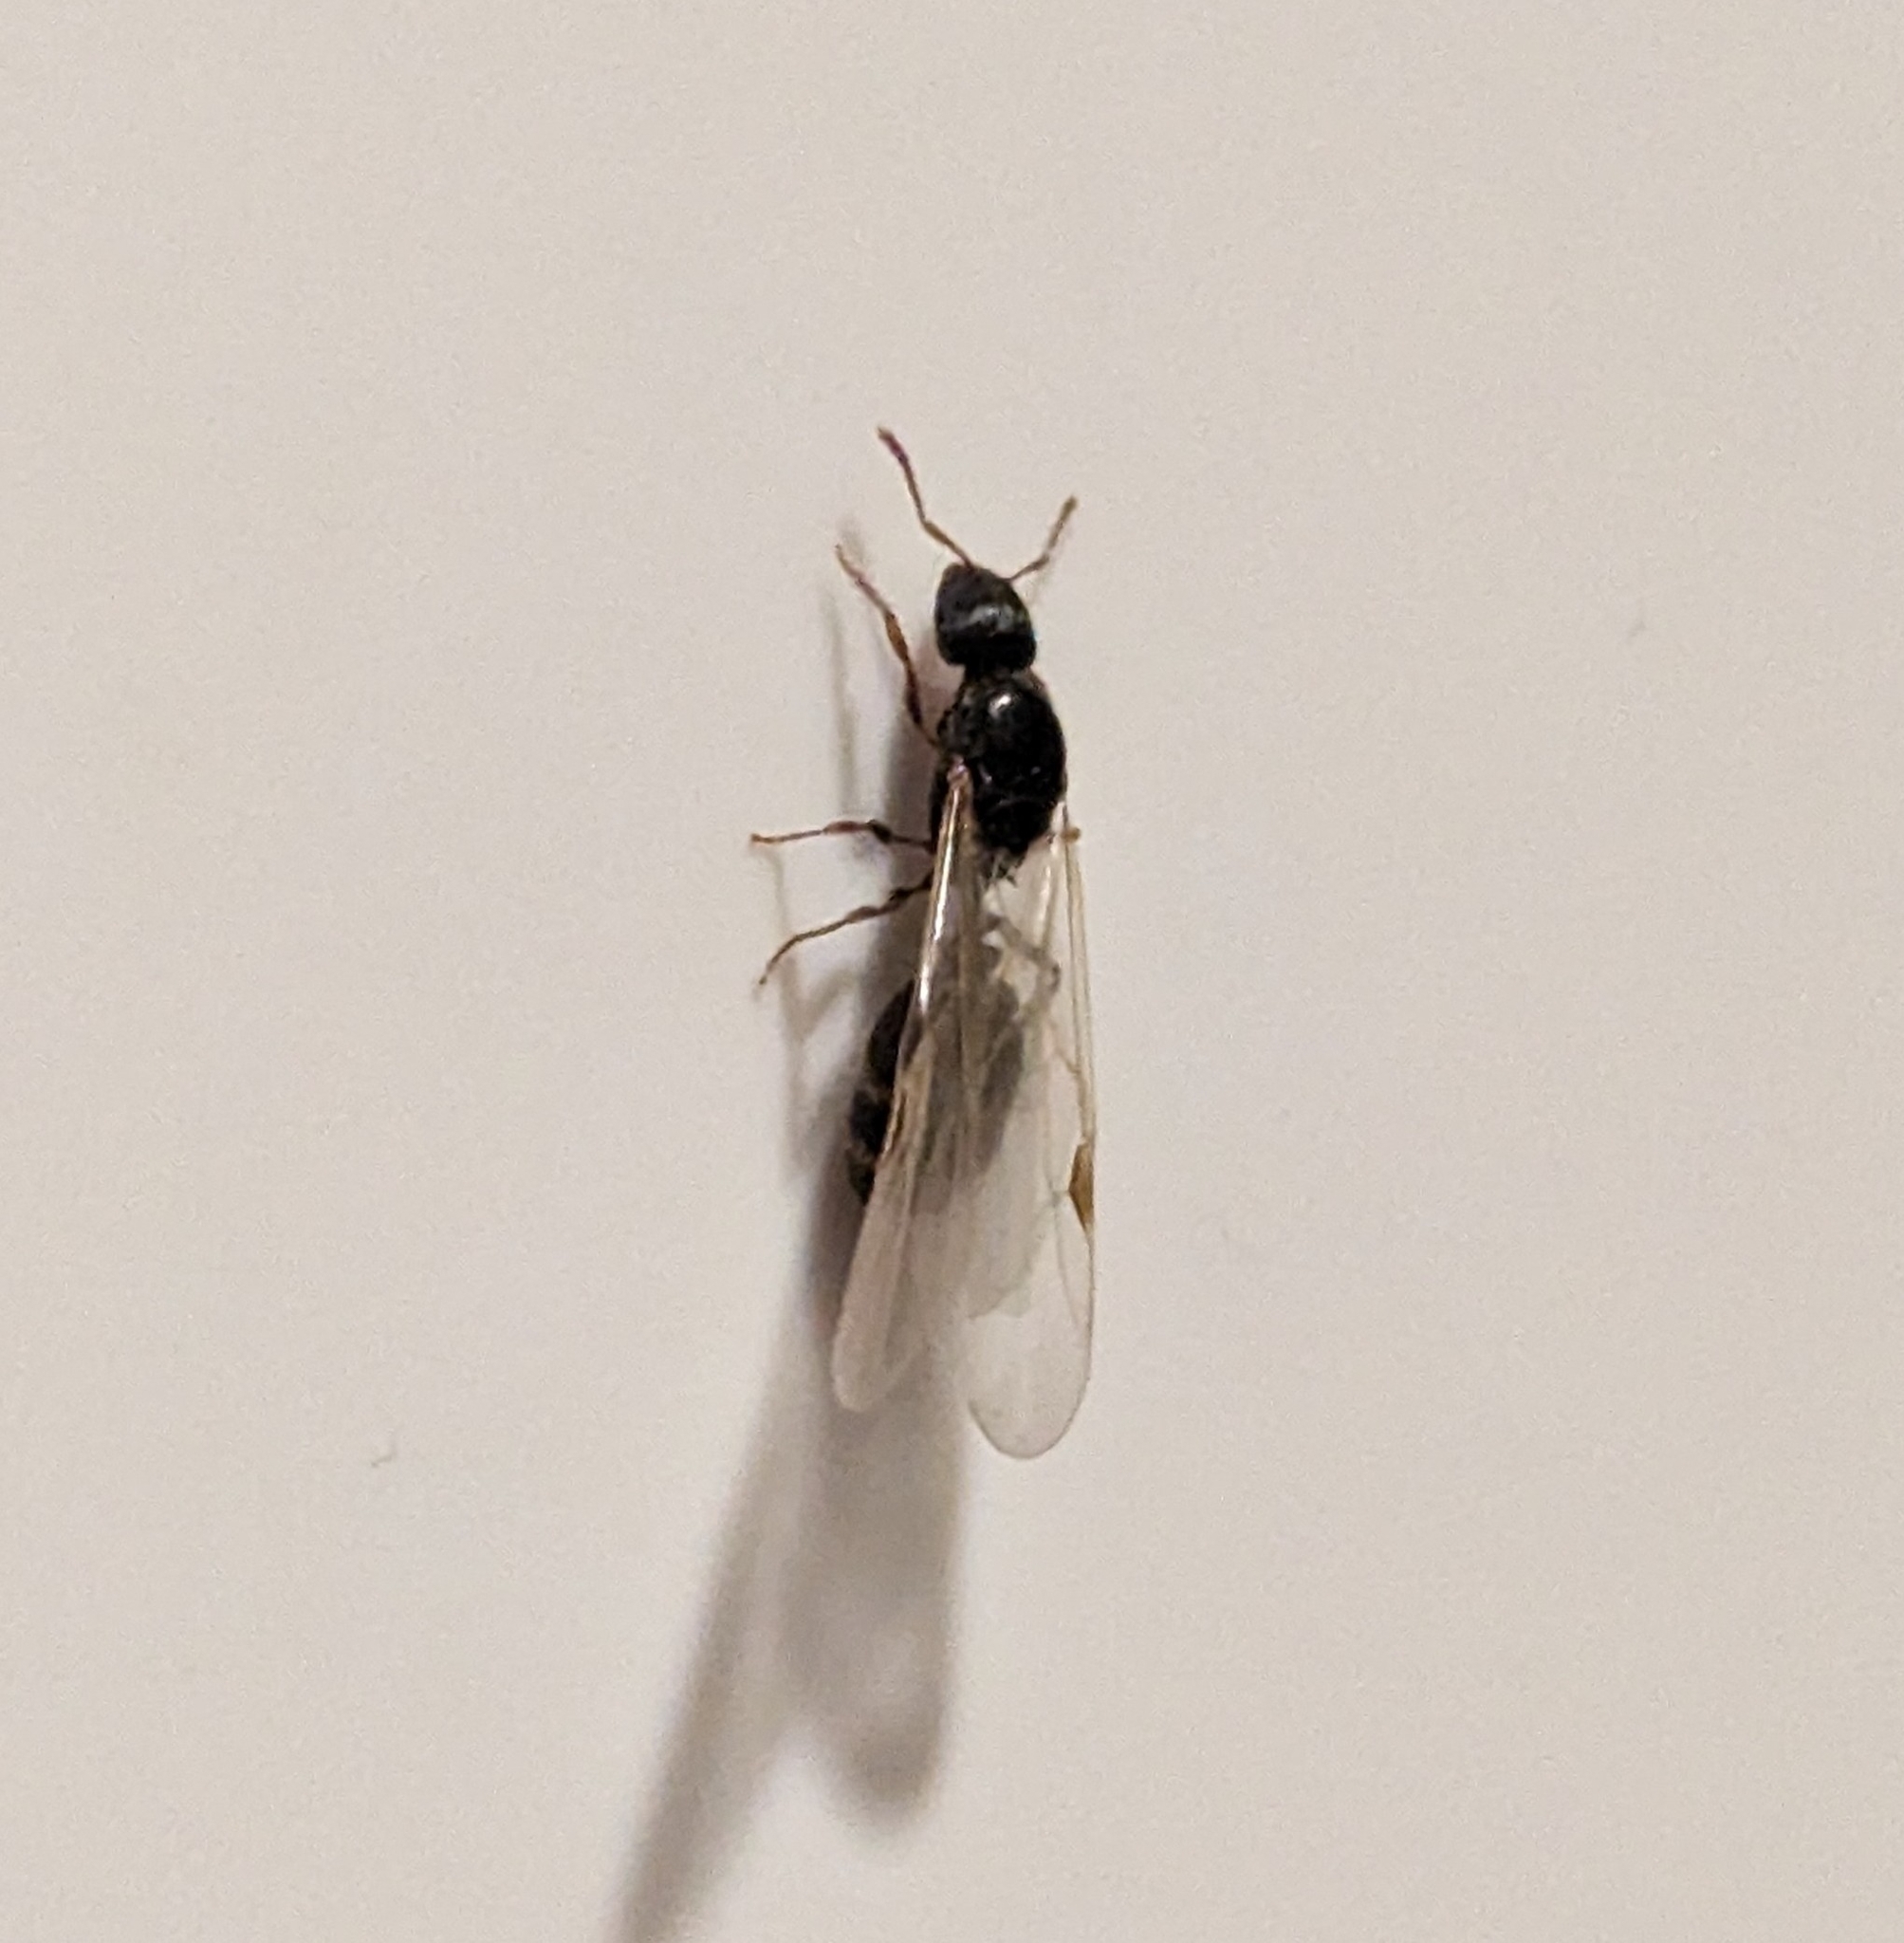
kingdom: Animalia
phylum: Arthropoda
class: Insecta
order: Hymenoptera
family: Formicidae
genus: Tetramorium
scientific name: Tetramorium immigrans
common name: Pavement ant
